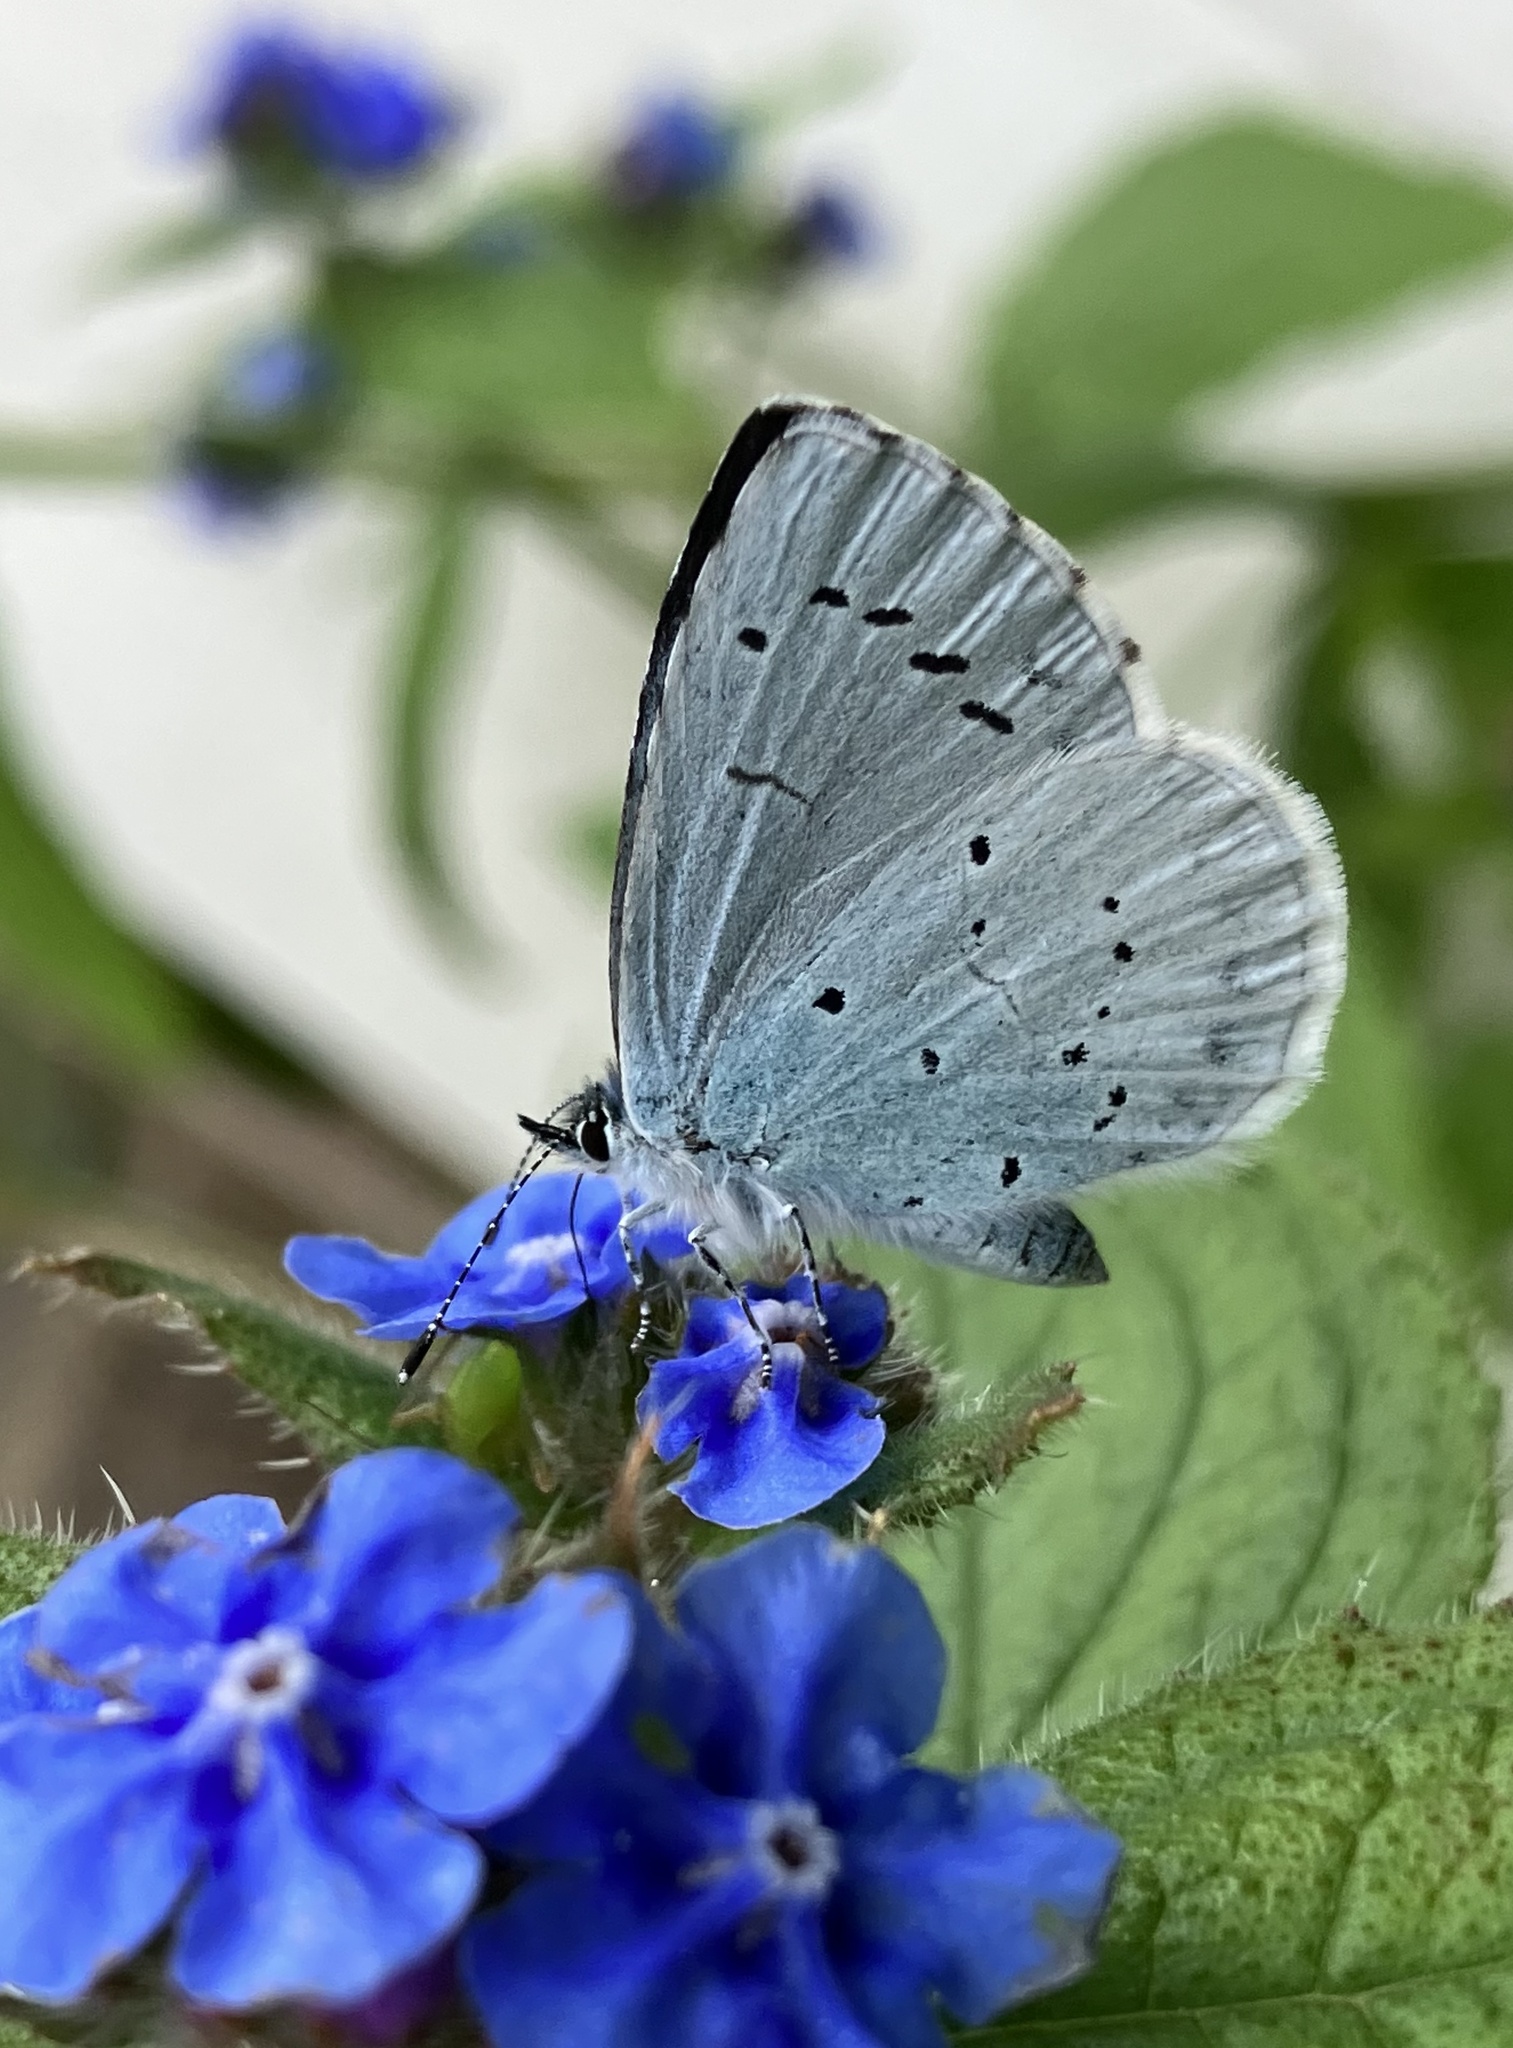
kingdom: Animalia
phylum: Arthropoda
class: Insecta
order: Lepidoptera
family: Lycaenidae
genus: Celastrina
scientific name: Celastrina argiolus
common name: Holly blue
